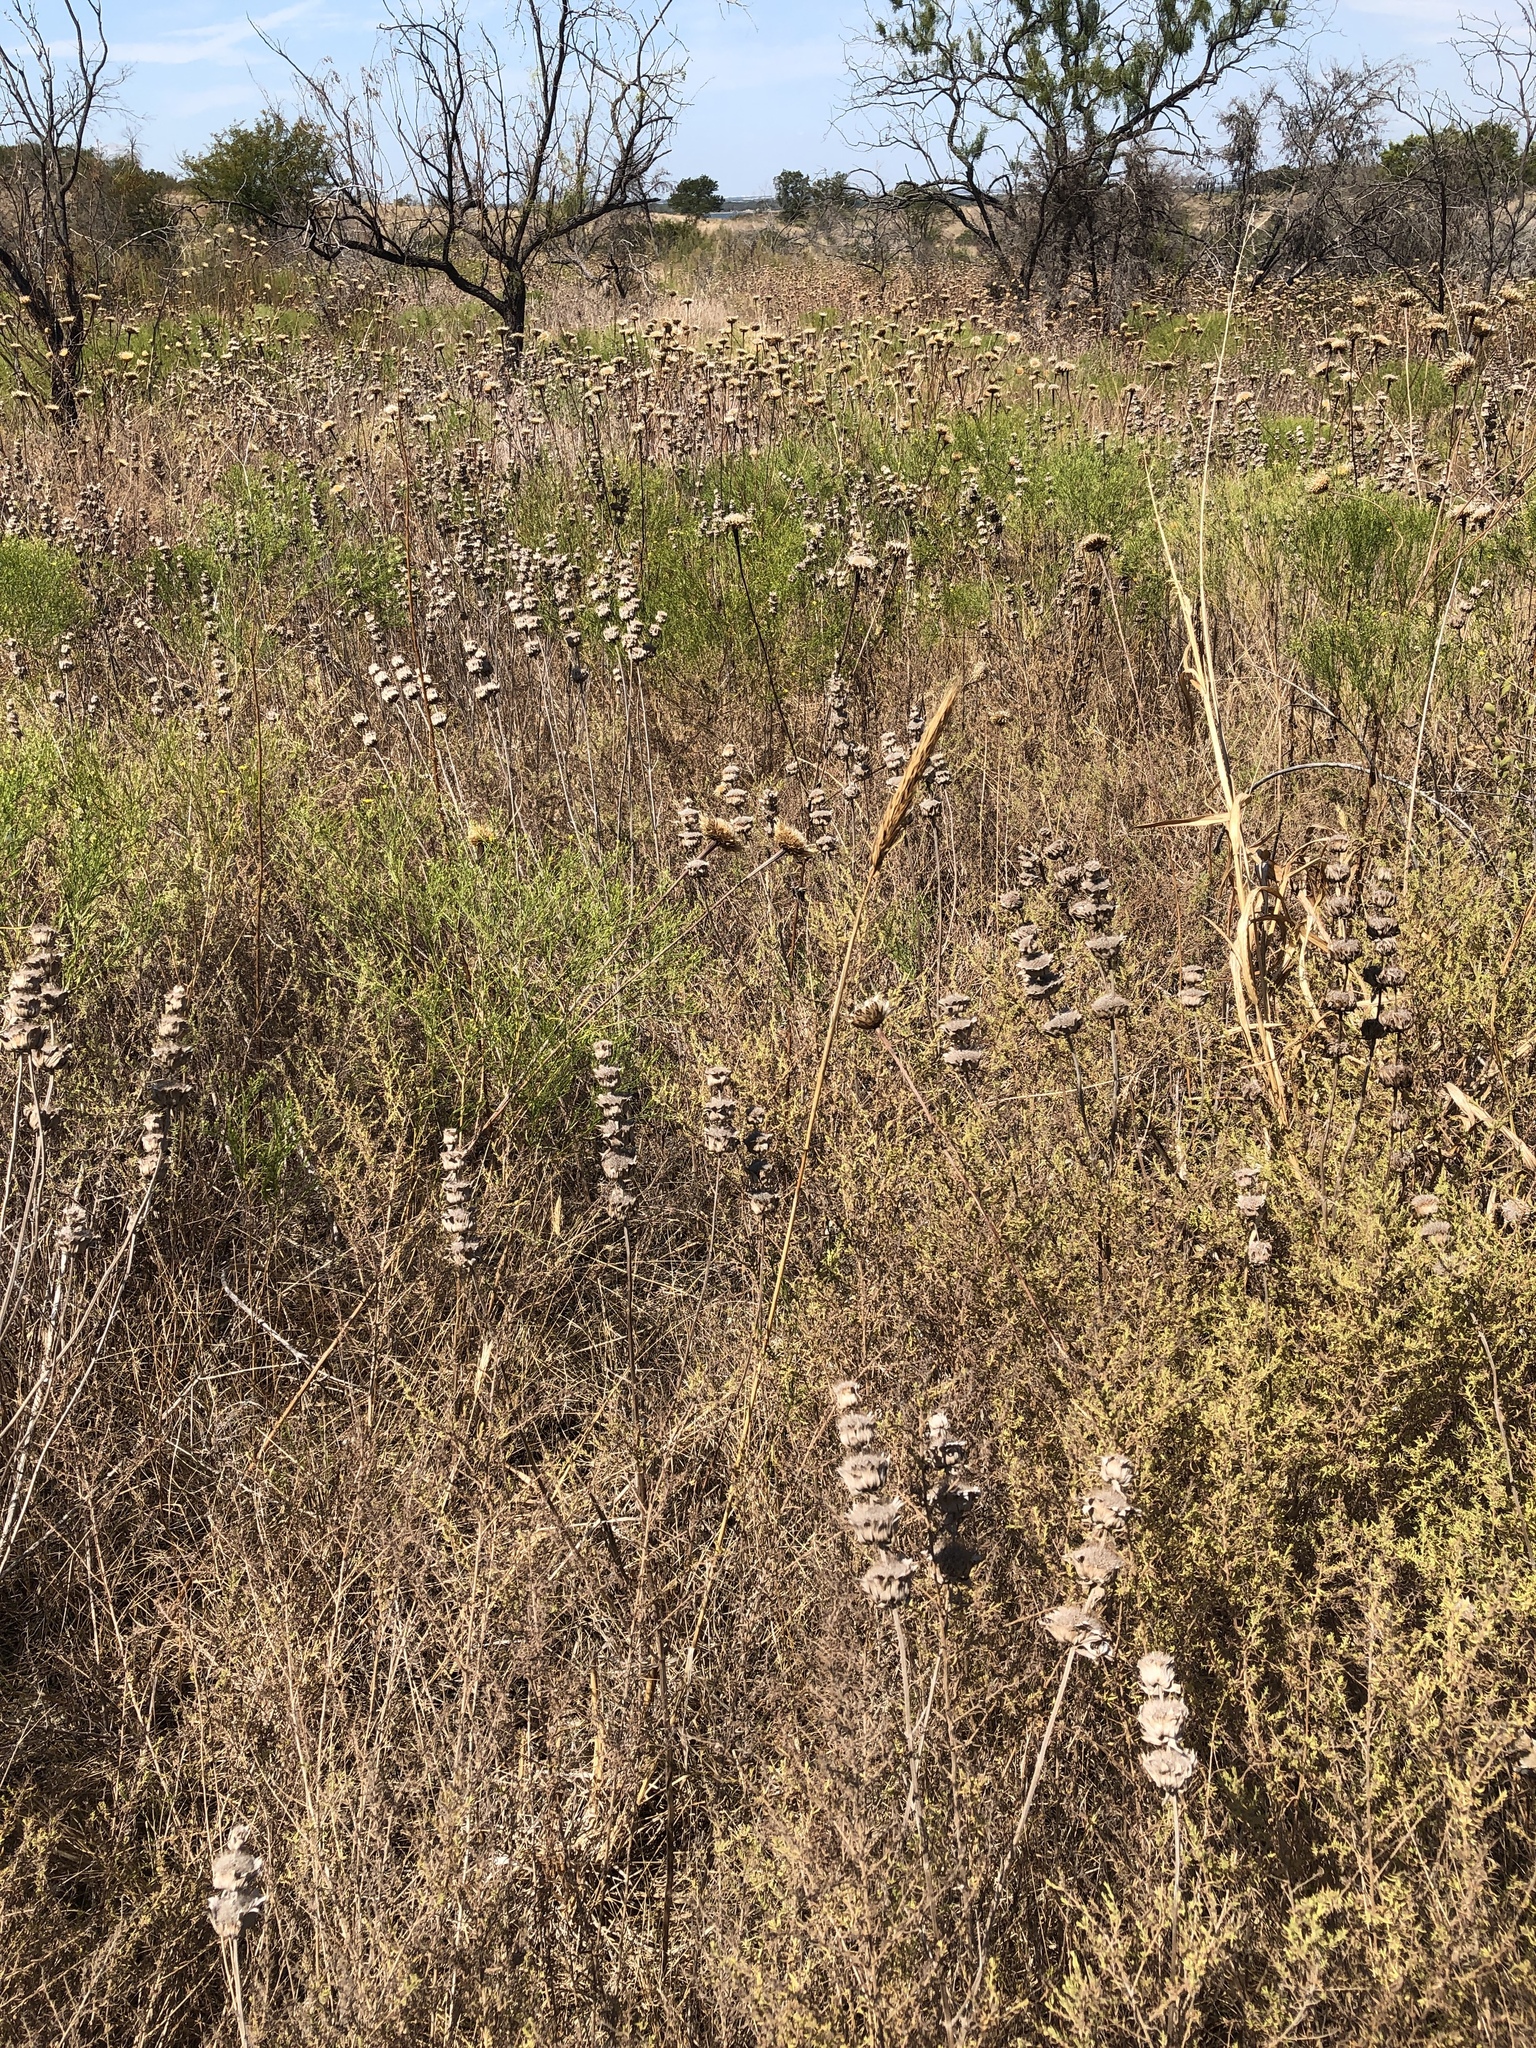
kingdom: Plantae
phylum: Tracheophyta
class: Liliopsida
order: Poales
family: Poaceae
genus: Elymus
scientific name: Elymus virginicus
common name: Common eastern wildrye
